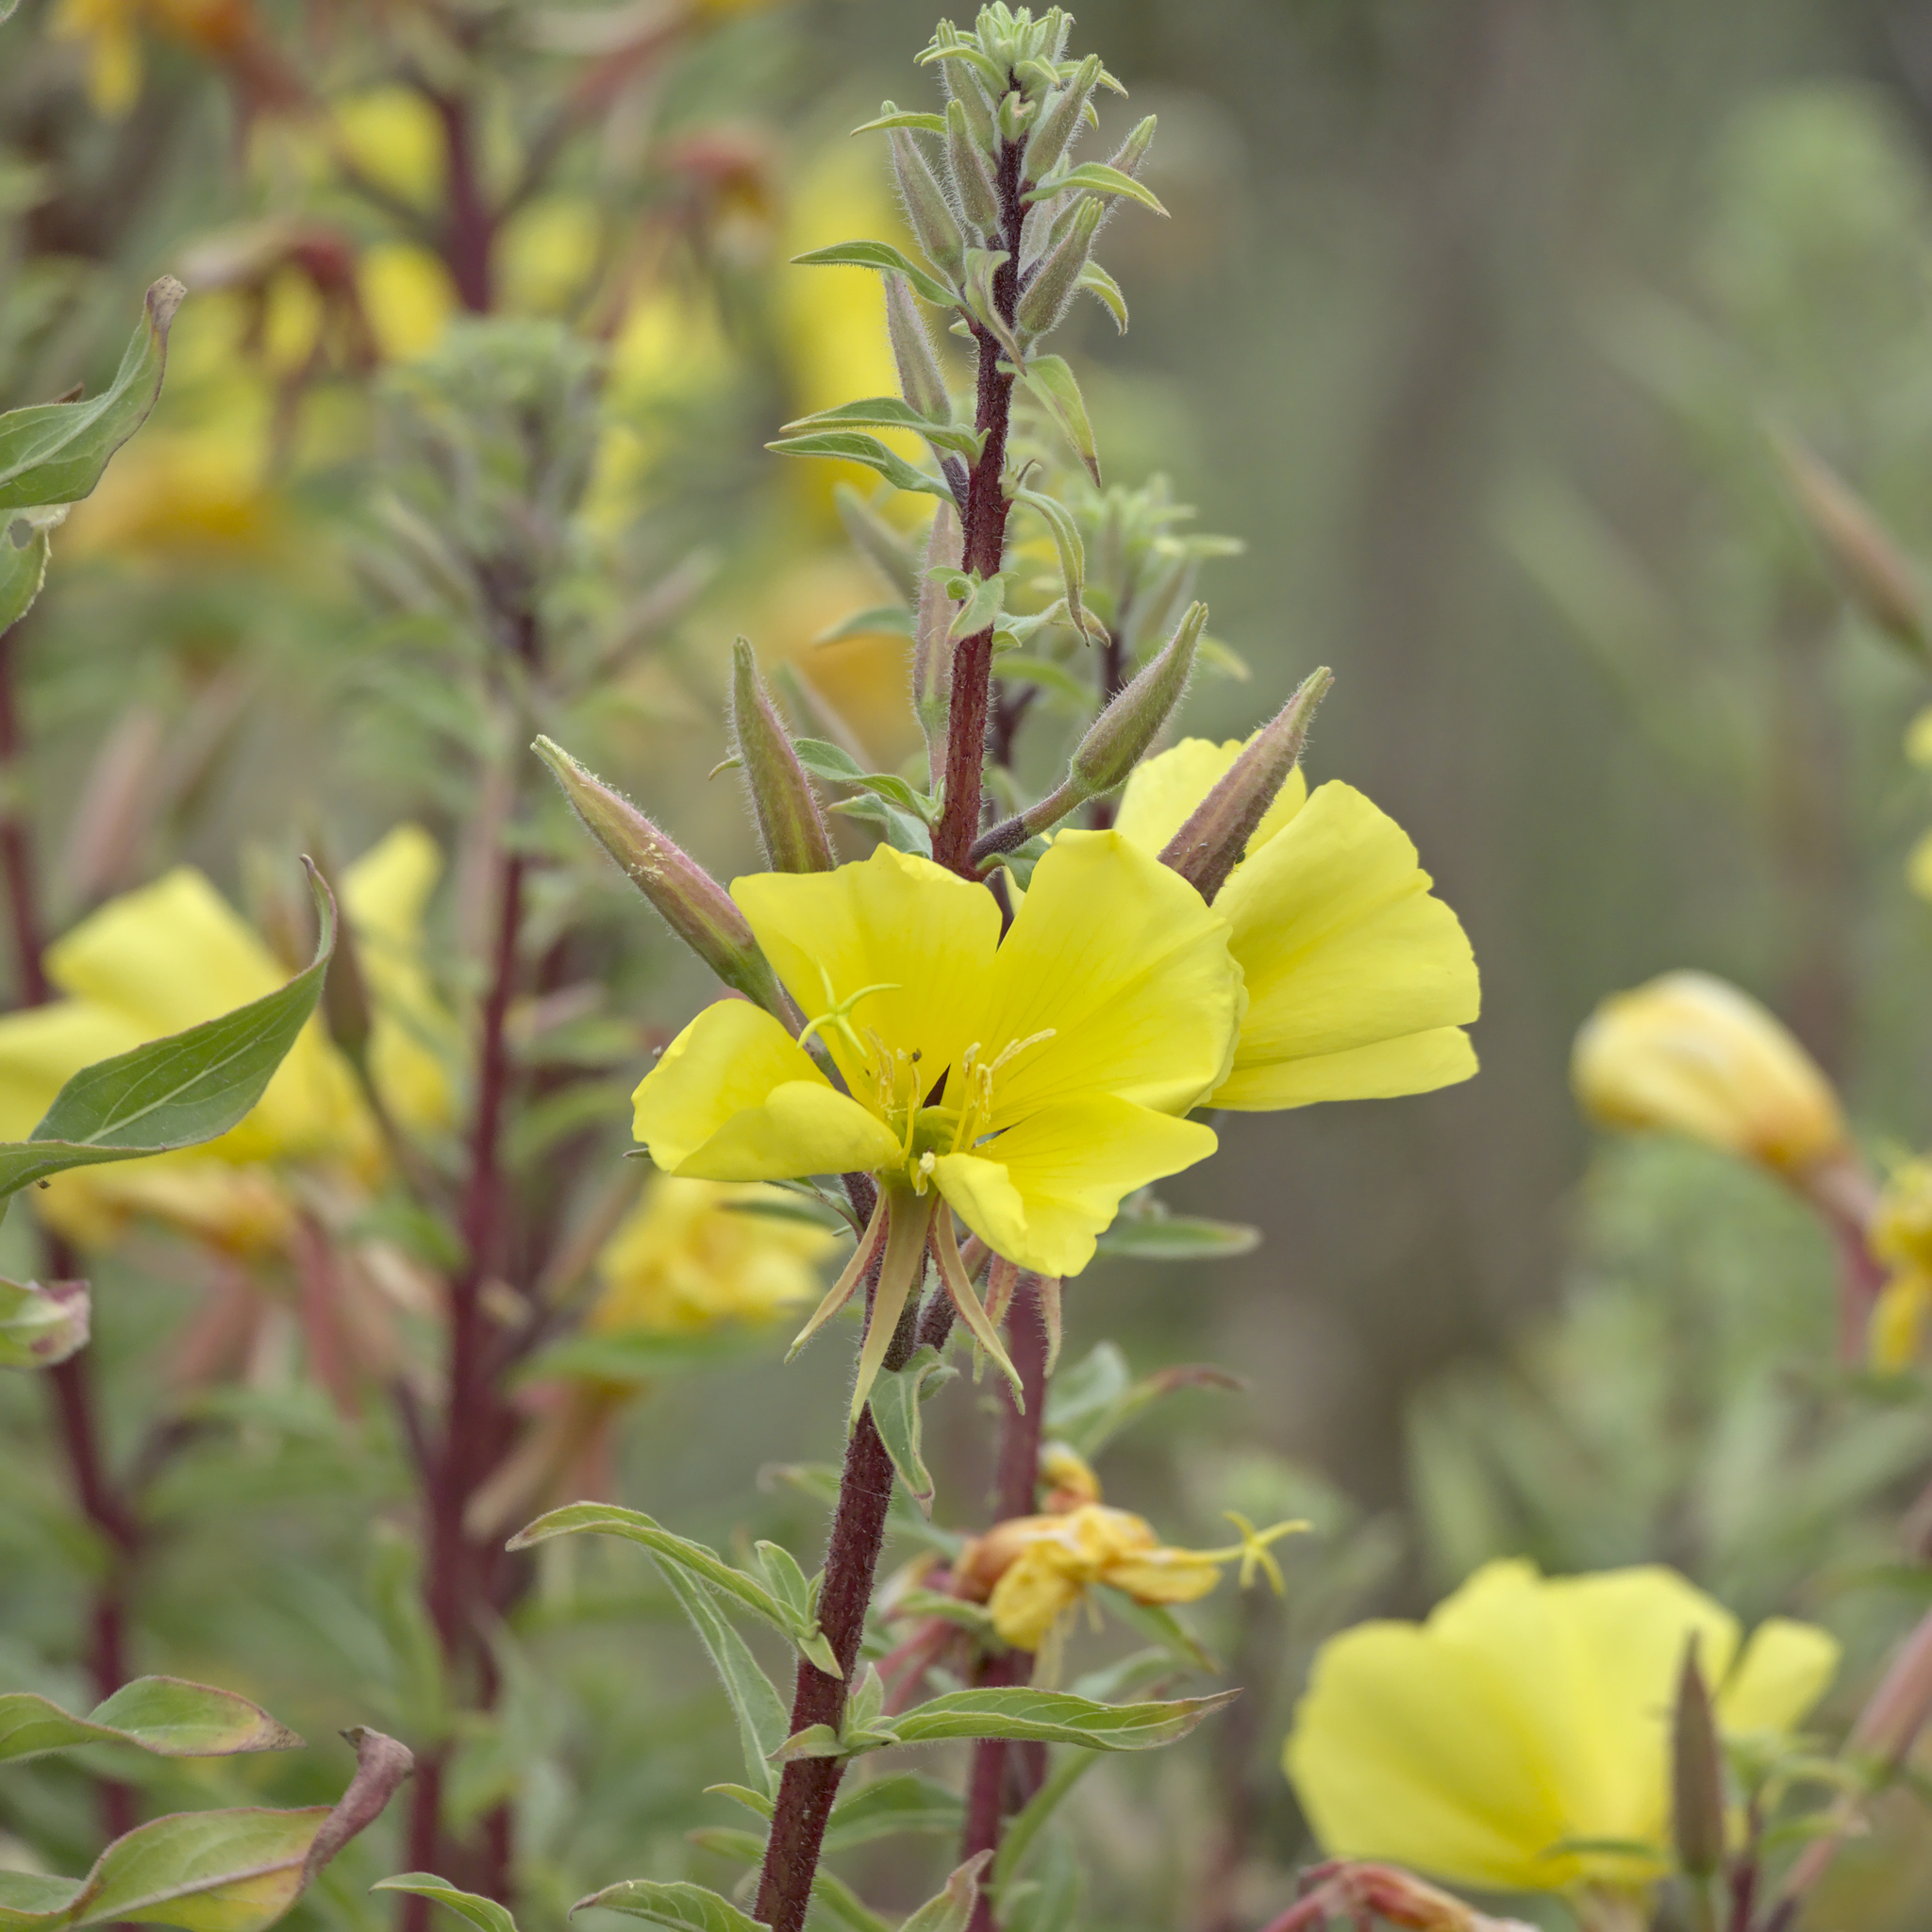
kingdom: Plantae
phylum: Tracheophyta
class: Magnoliopsida
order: Myrtales
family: Onagraceae
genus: Oenothera
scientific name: Oenothera elata
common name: Hooker's evening-primrose
